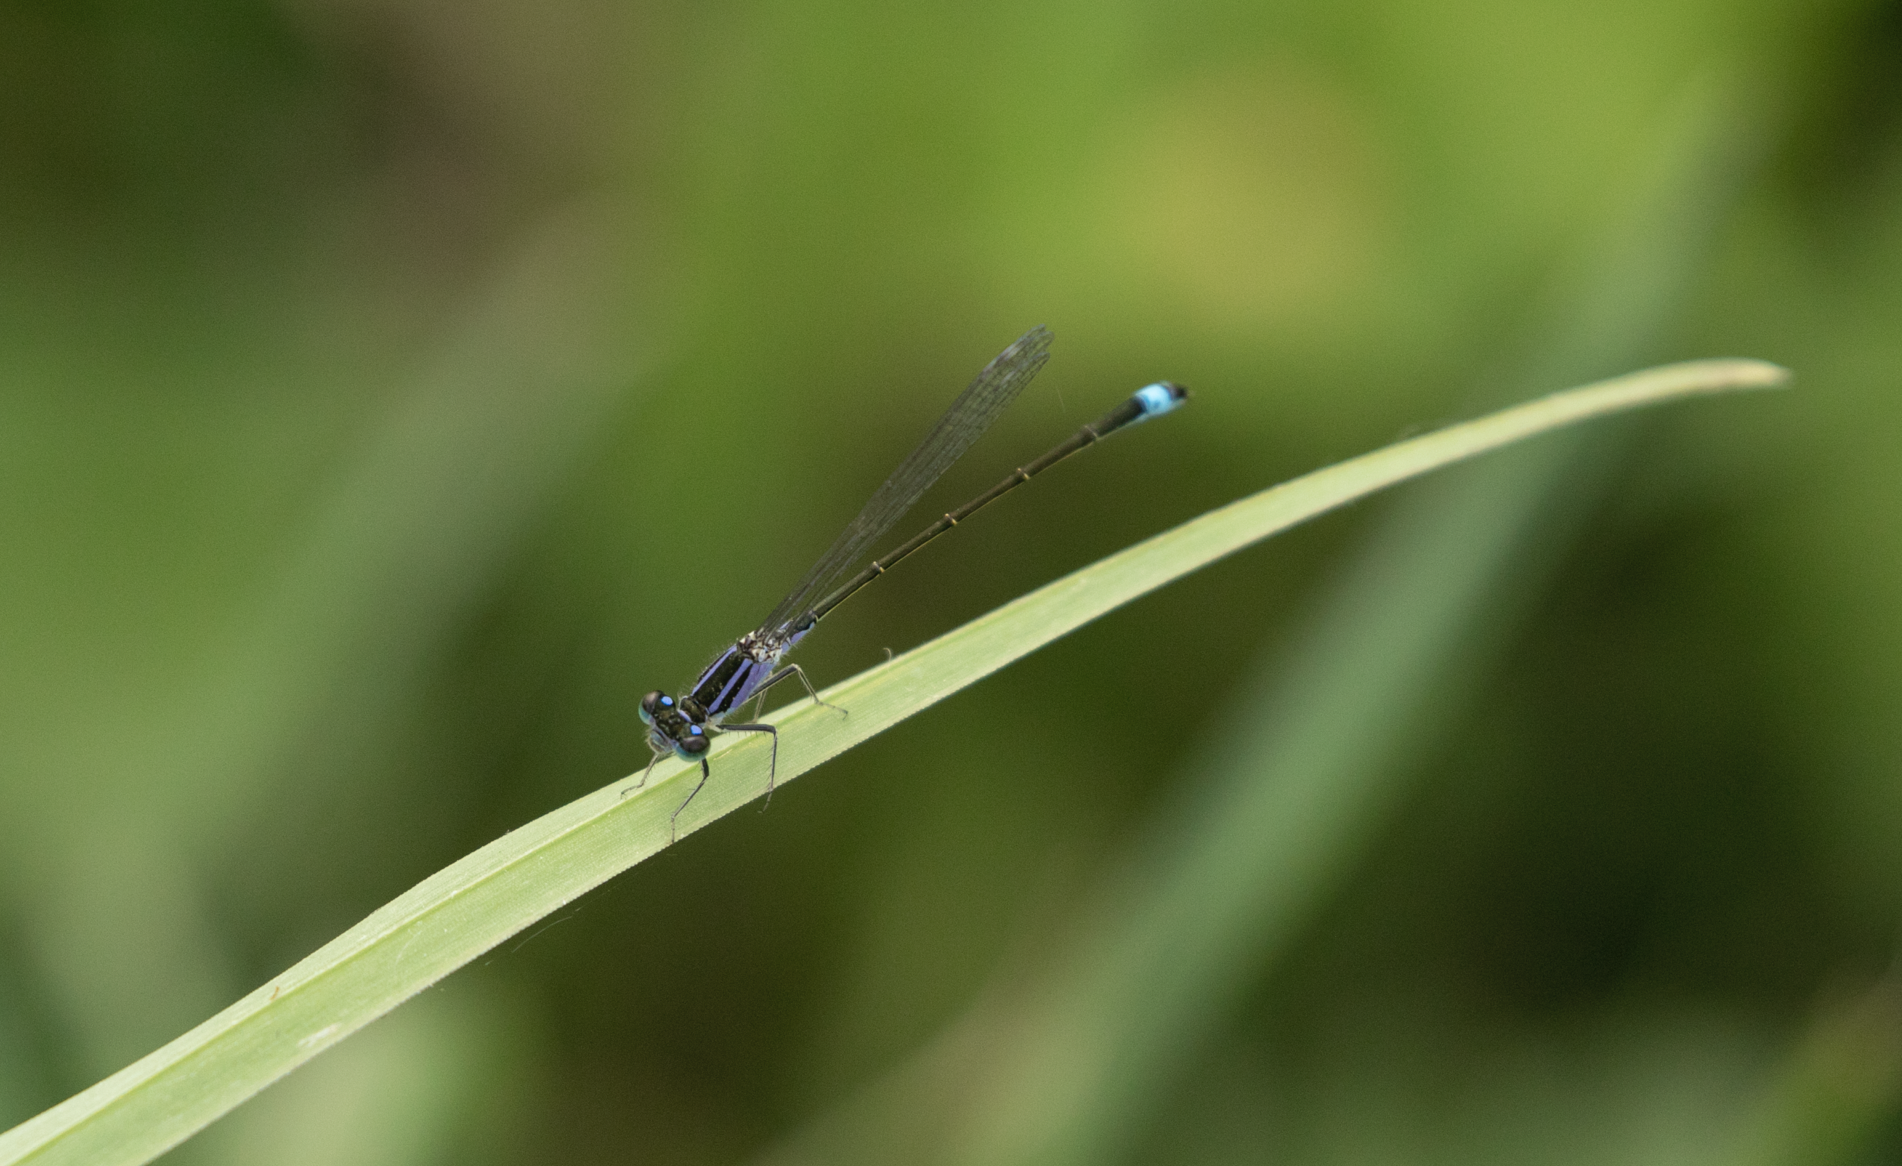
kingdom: Animalia
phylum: Arthropoda
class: Insecta
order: Odonata
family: Coenagrionidae
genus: Ischnura
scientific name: Ischnura elegans
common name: Blue-tailed damselfly
